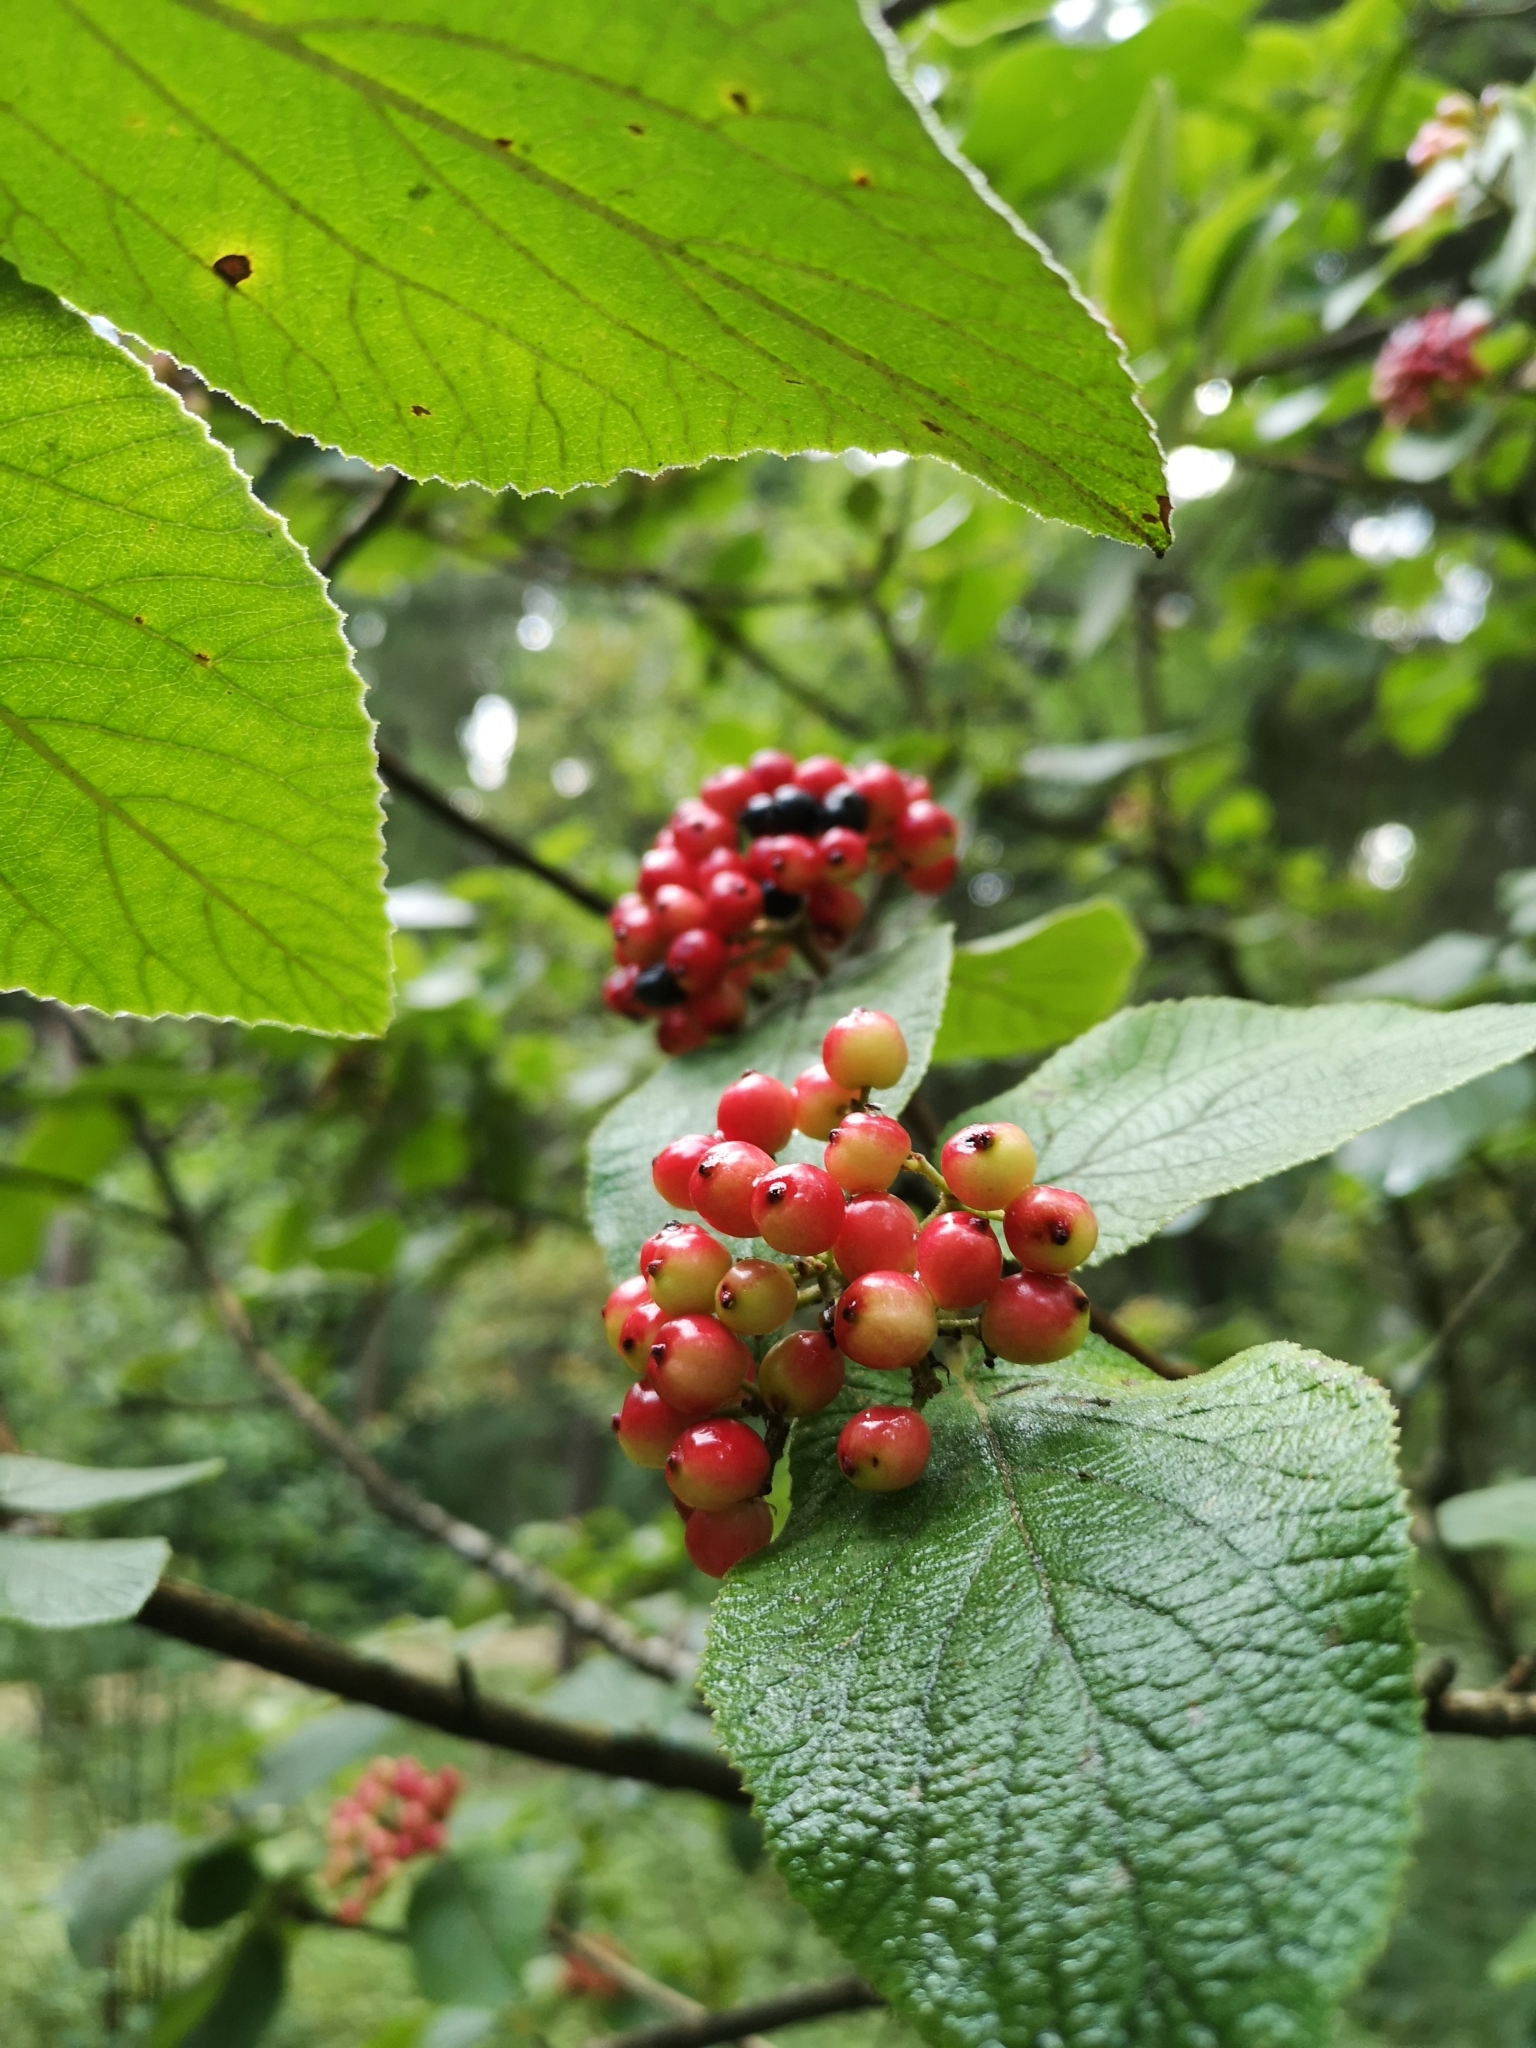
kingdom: Plantae
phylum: Tracheophyta
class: Magnoliopsida
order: Dipsacales
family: Viburnaceae
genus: Viburnum
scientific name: Viburnum lantana
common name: Wayfaring tree
